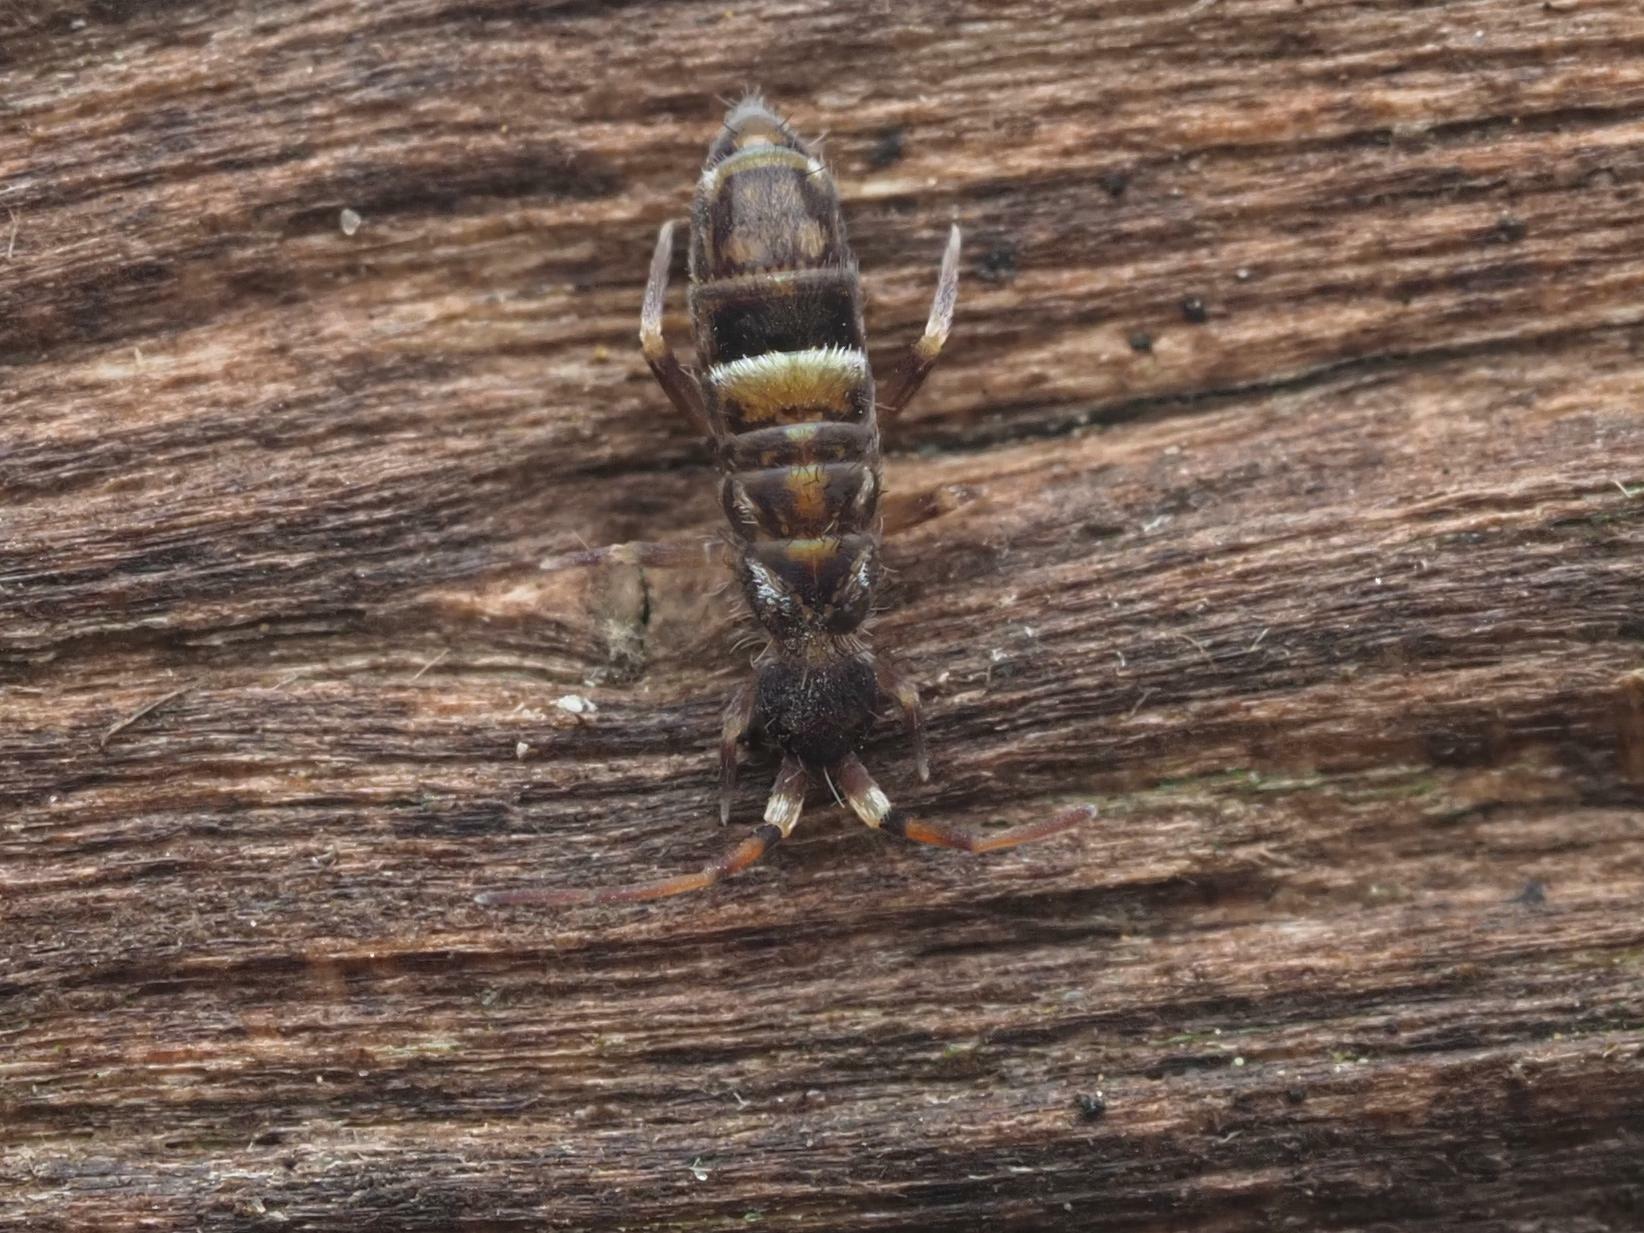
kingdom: Animalia
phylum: Arthropoda
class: Collembola
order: Entomobryomorpha
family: Orchesellidae
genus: Orchesella
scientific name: Orchesella cincta
